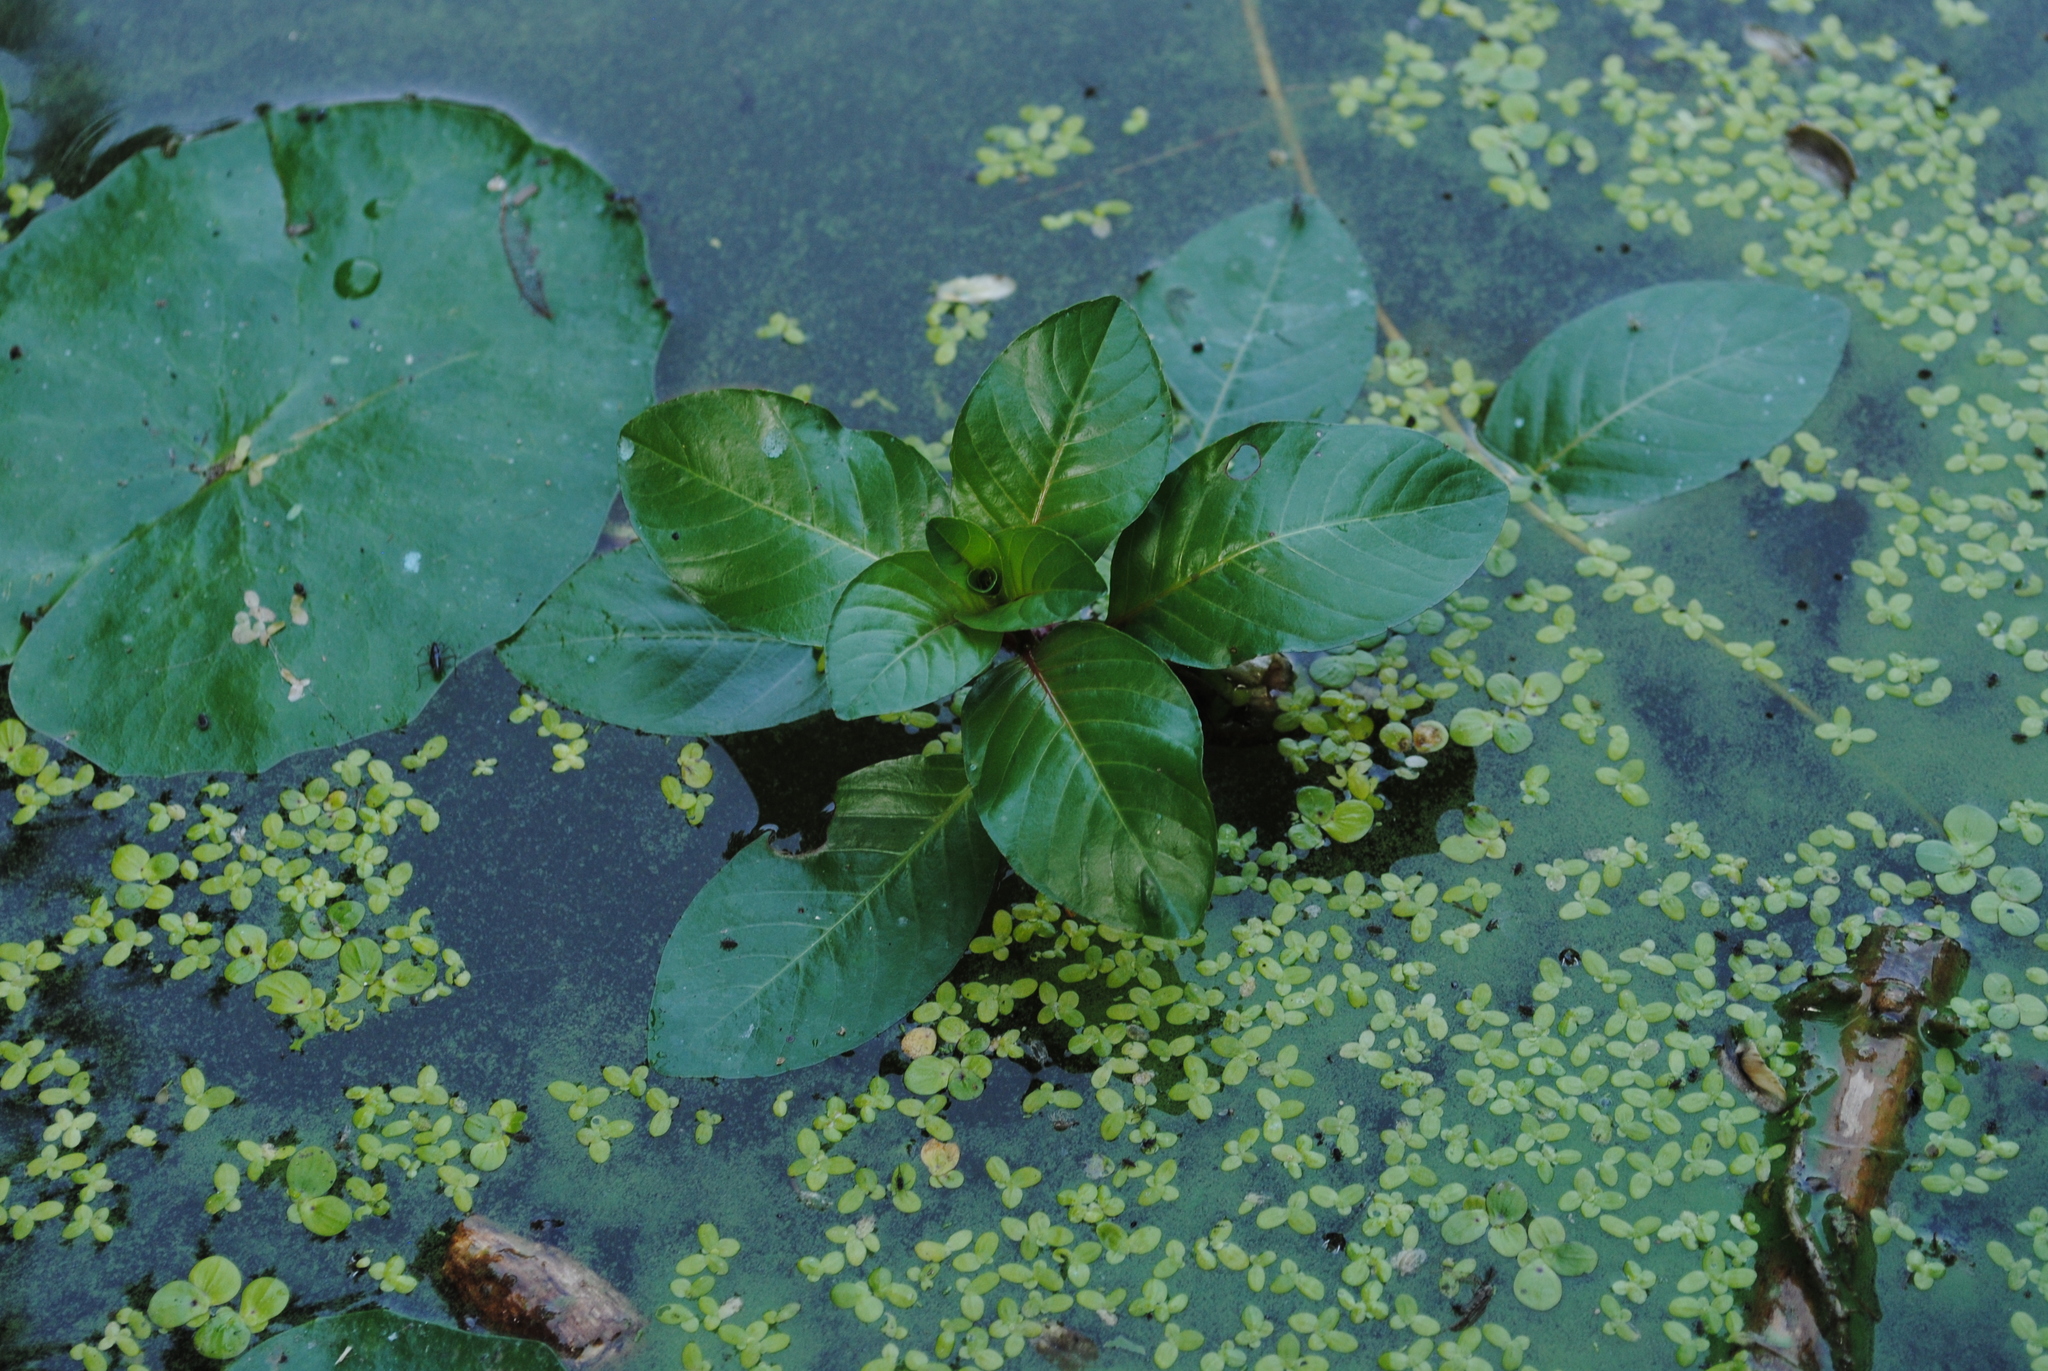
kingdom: Plantae
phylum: Tracheophyta
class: Magnoliopsida
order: Myrtales
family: Onagraceae
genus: Ludwigia
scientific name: Ludwigia peploides
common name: Floating primrose-willow
